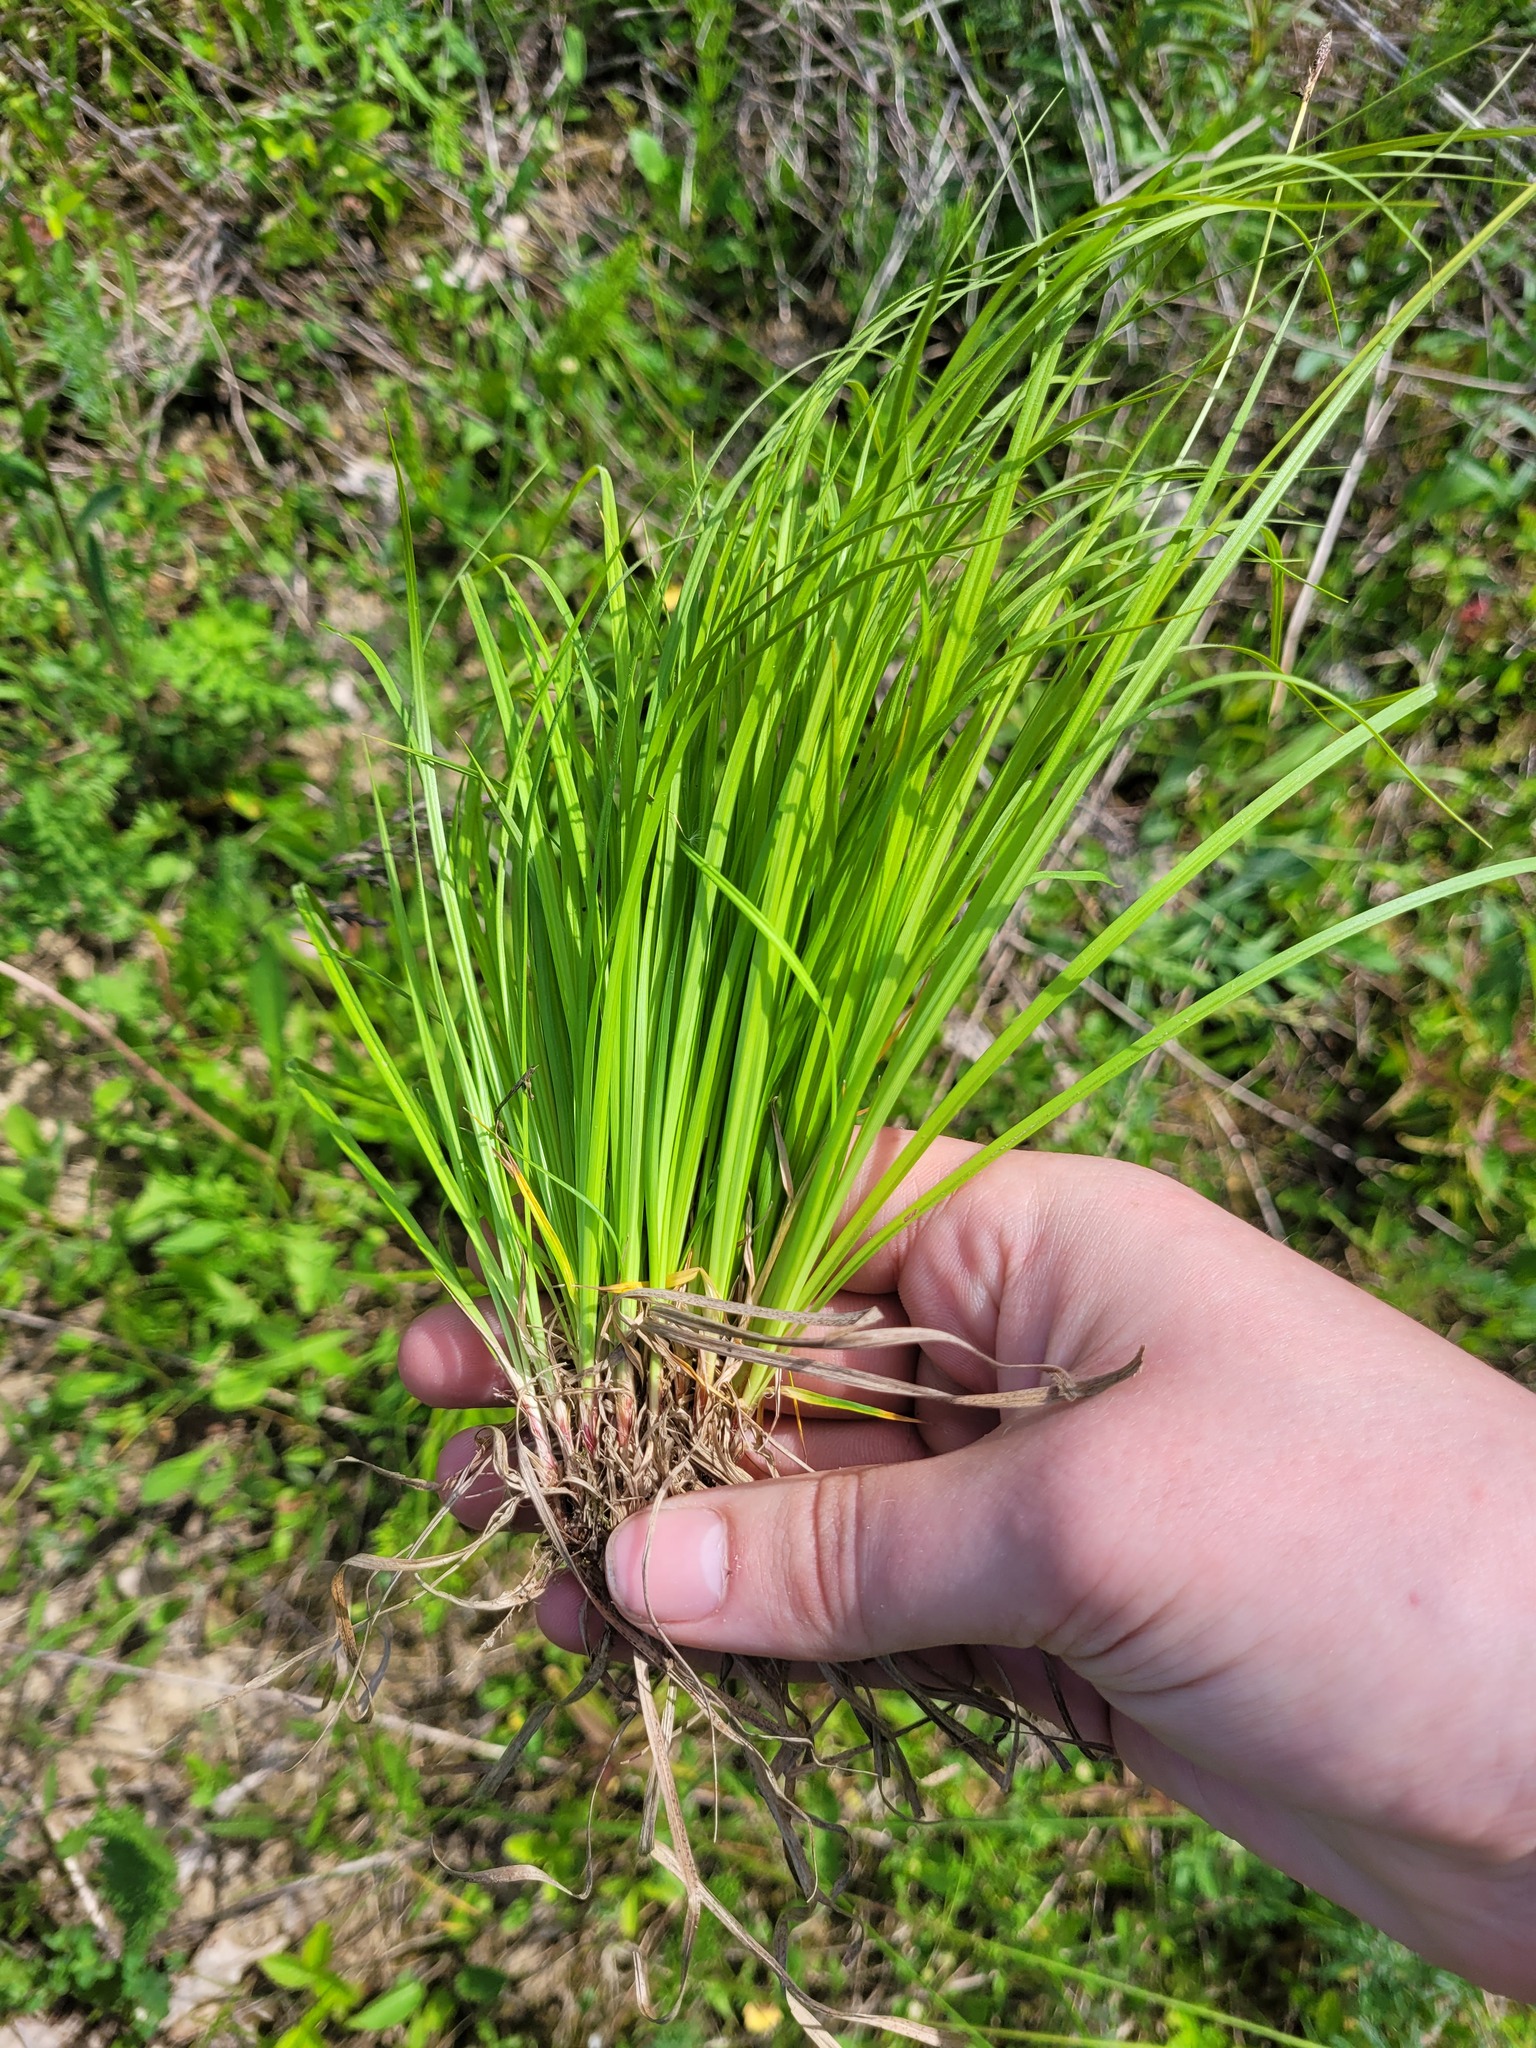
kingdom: Plantae
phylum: Tracheophyta
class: Liliopsida
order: Poales
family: Cyperaceae
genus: Carex
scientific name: Carex montana
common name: Soft-leaved sedge
